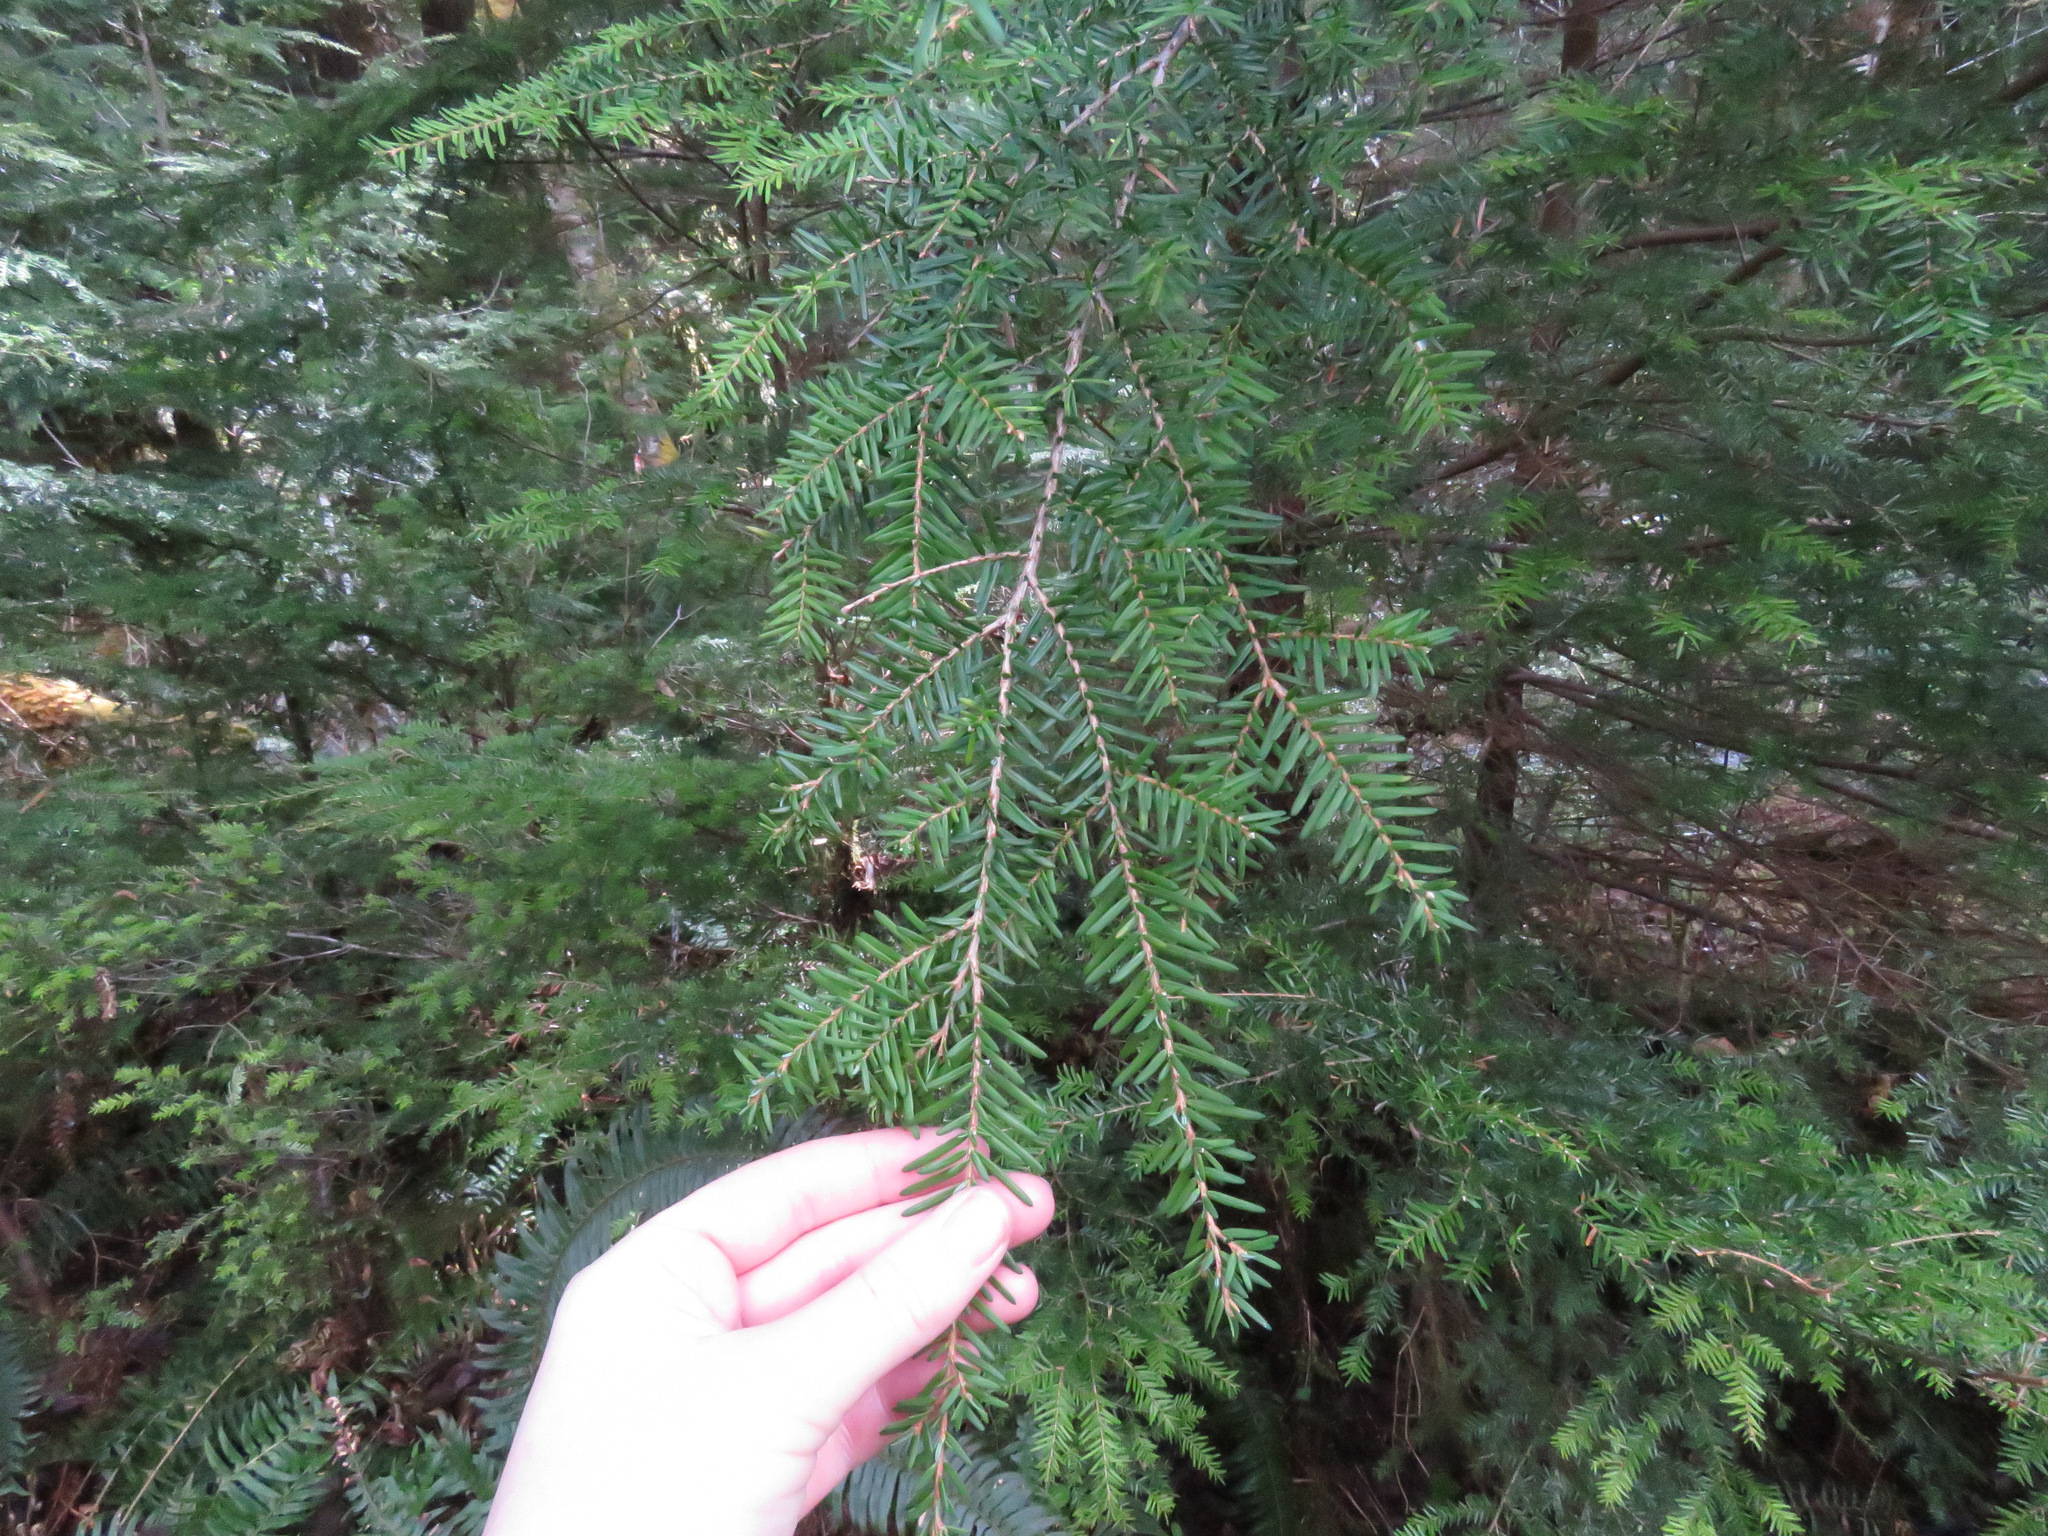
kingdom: Plantae
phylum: Tracheophyta
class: Pinopsida
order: Pinales
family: Pinaceae
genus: Tsuga
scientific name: Tsuga heterophylla
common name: Western hemlock
